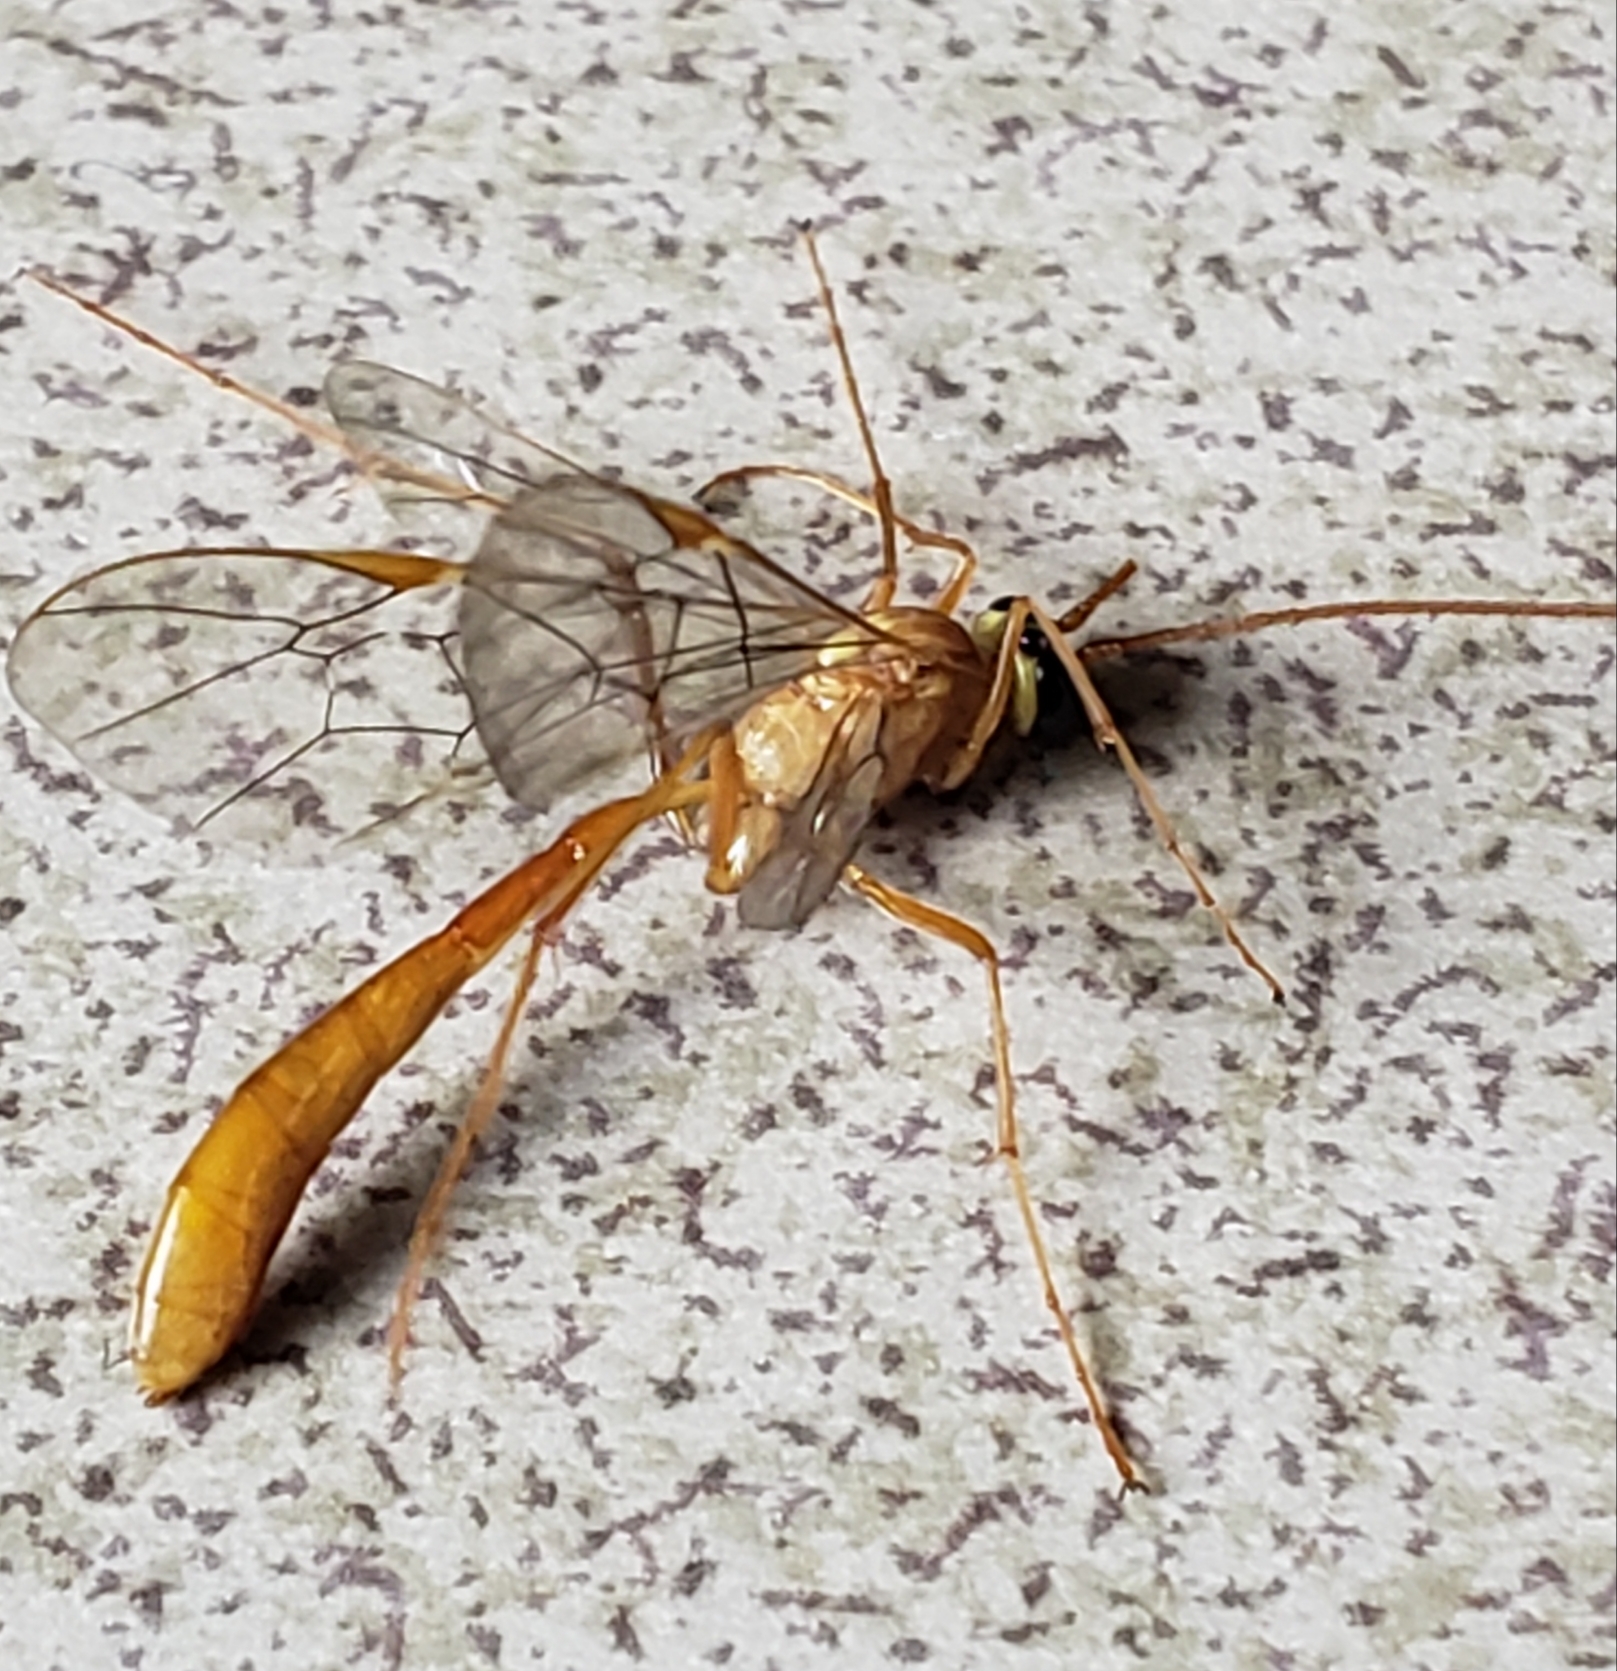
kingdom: Animalia
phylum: Arthropoda
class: Insecta
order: Hymenoptera
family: Ichneumonidae
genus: Ophion
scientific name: Ophion
